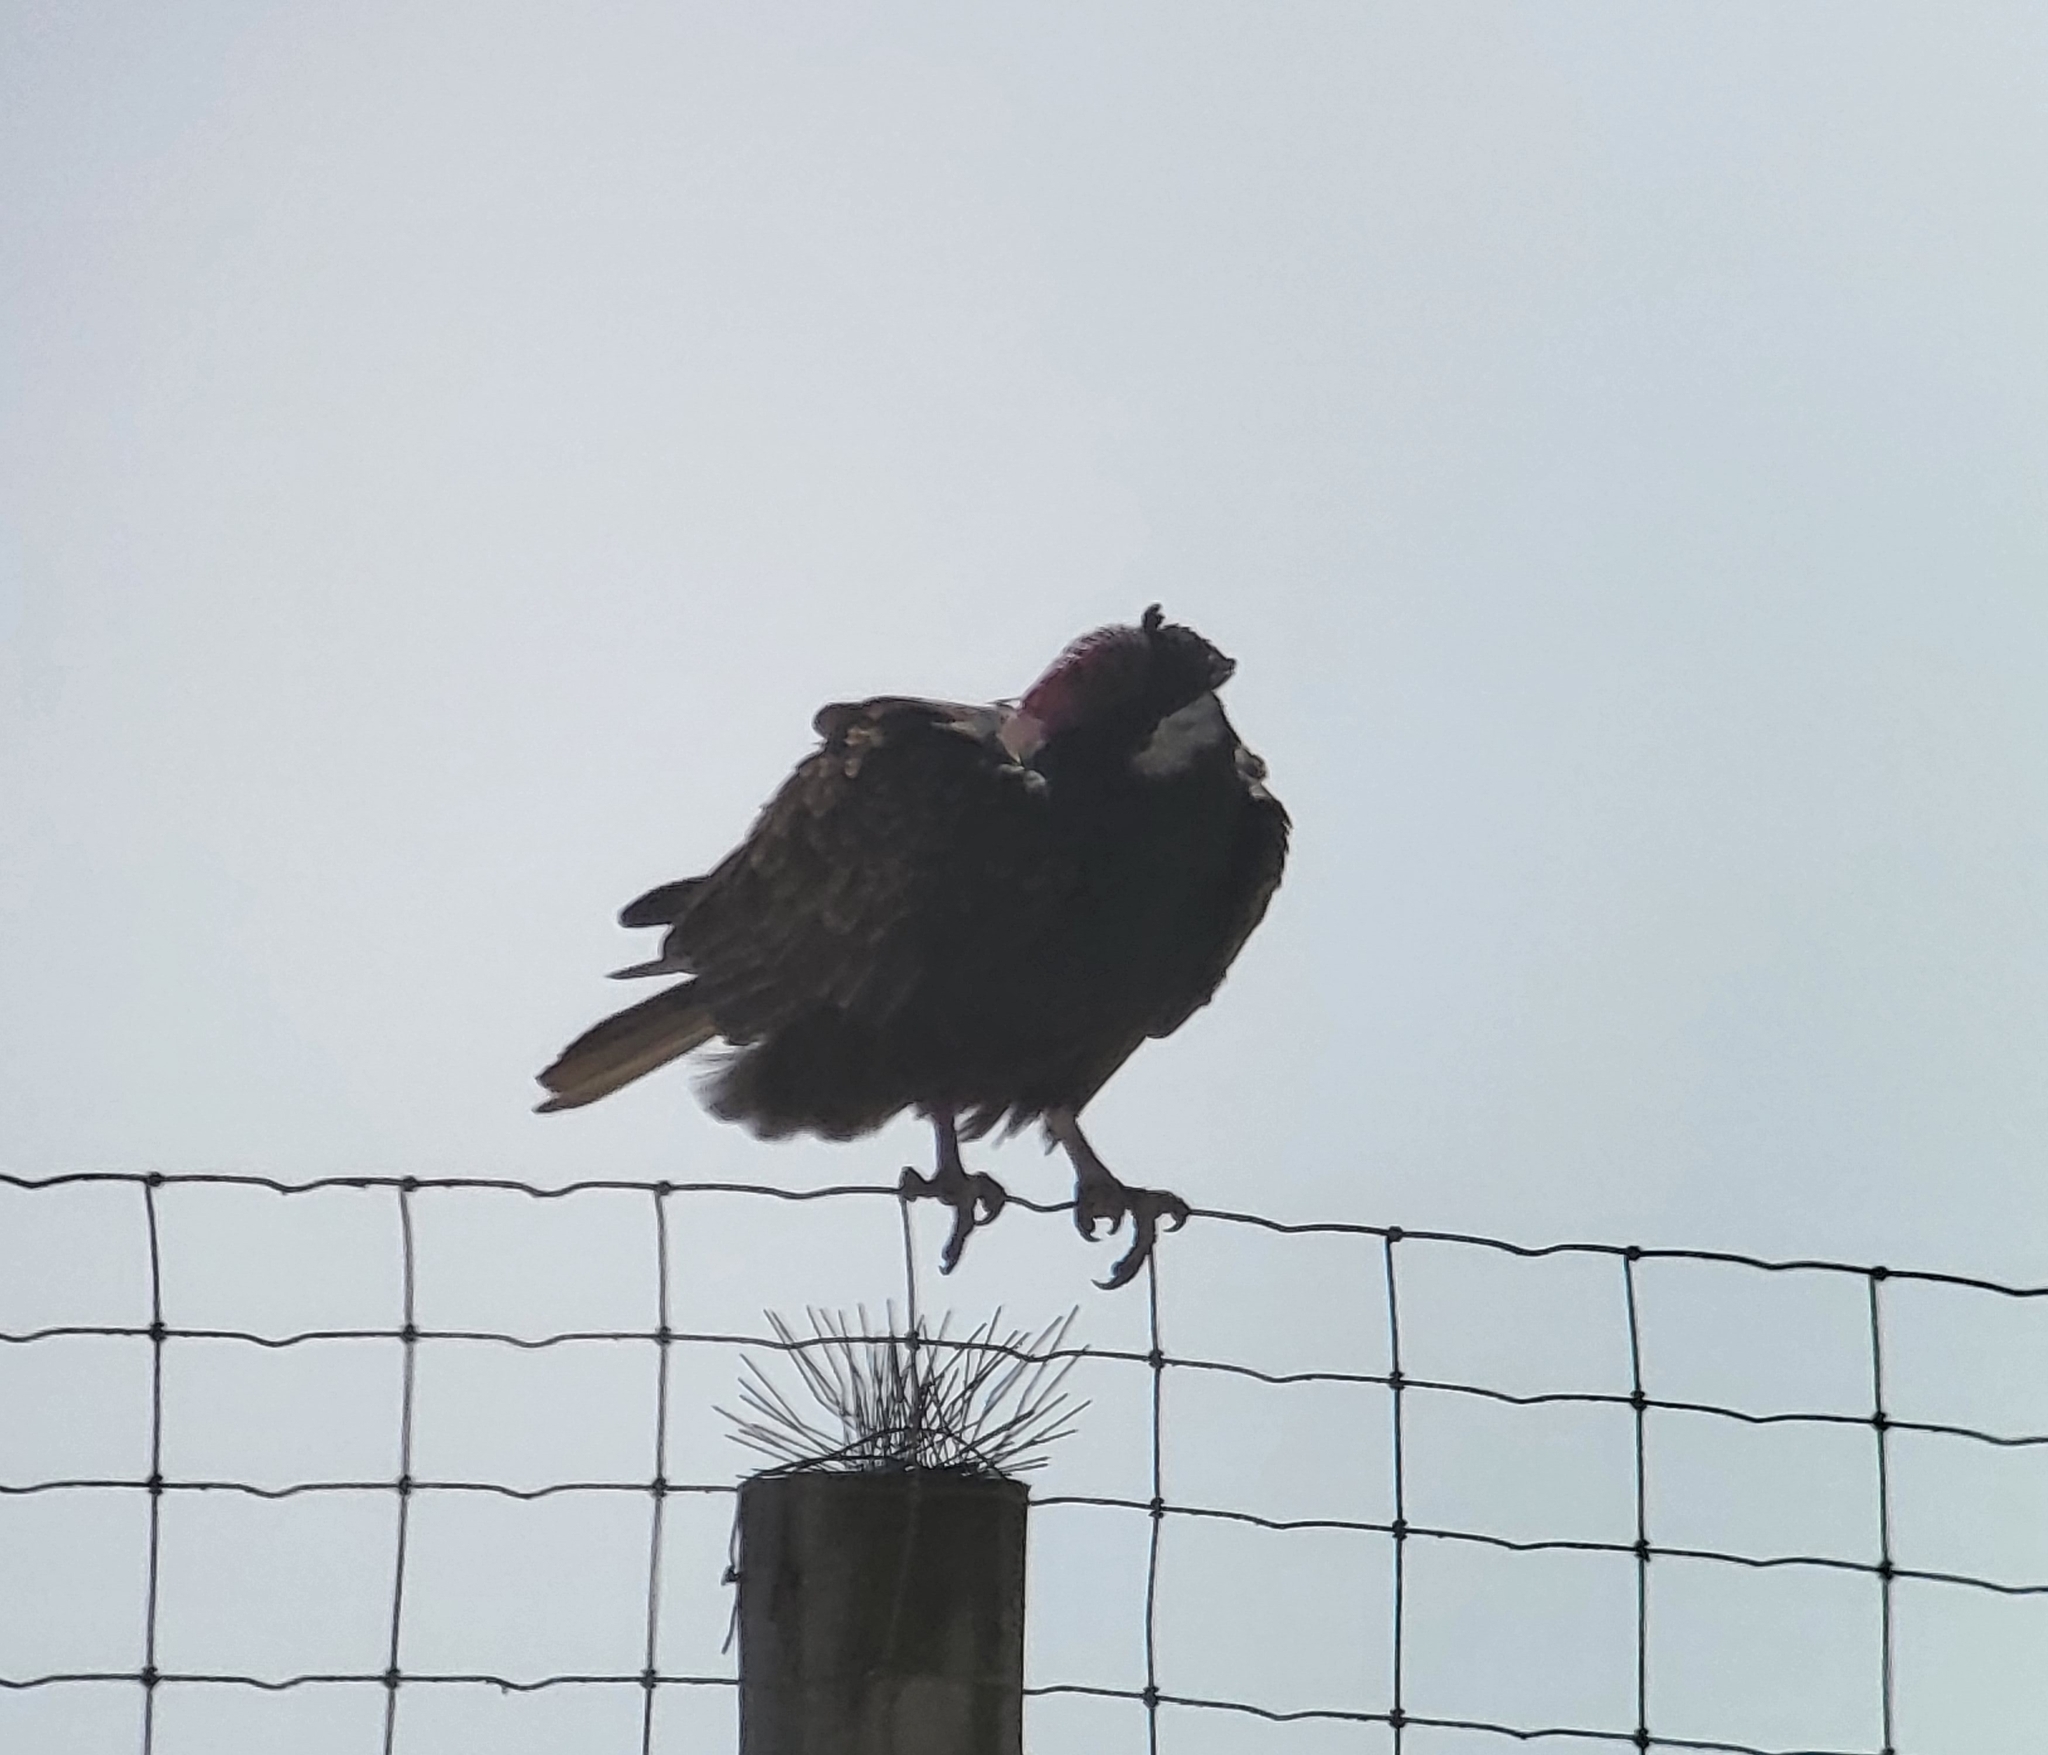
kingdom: Animalia
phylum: Chordata
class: Aves
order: Accipitriformes
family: Cathartidae
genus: Cathartes
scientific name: Cathartes aura
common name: Turkey vulture
